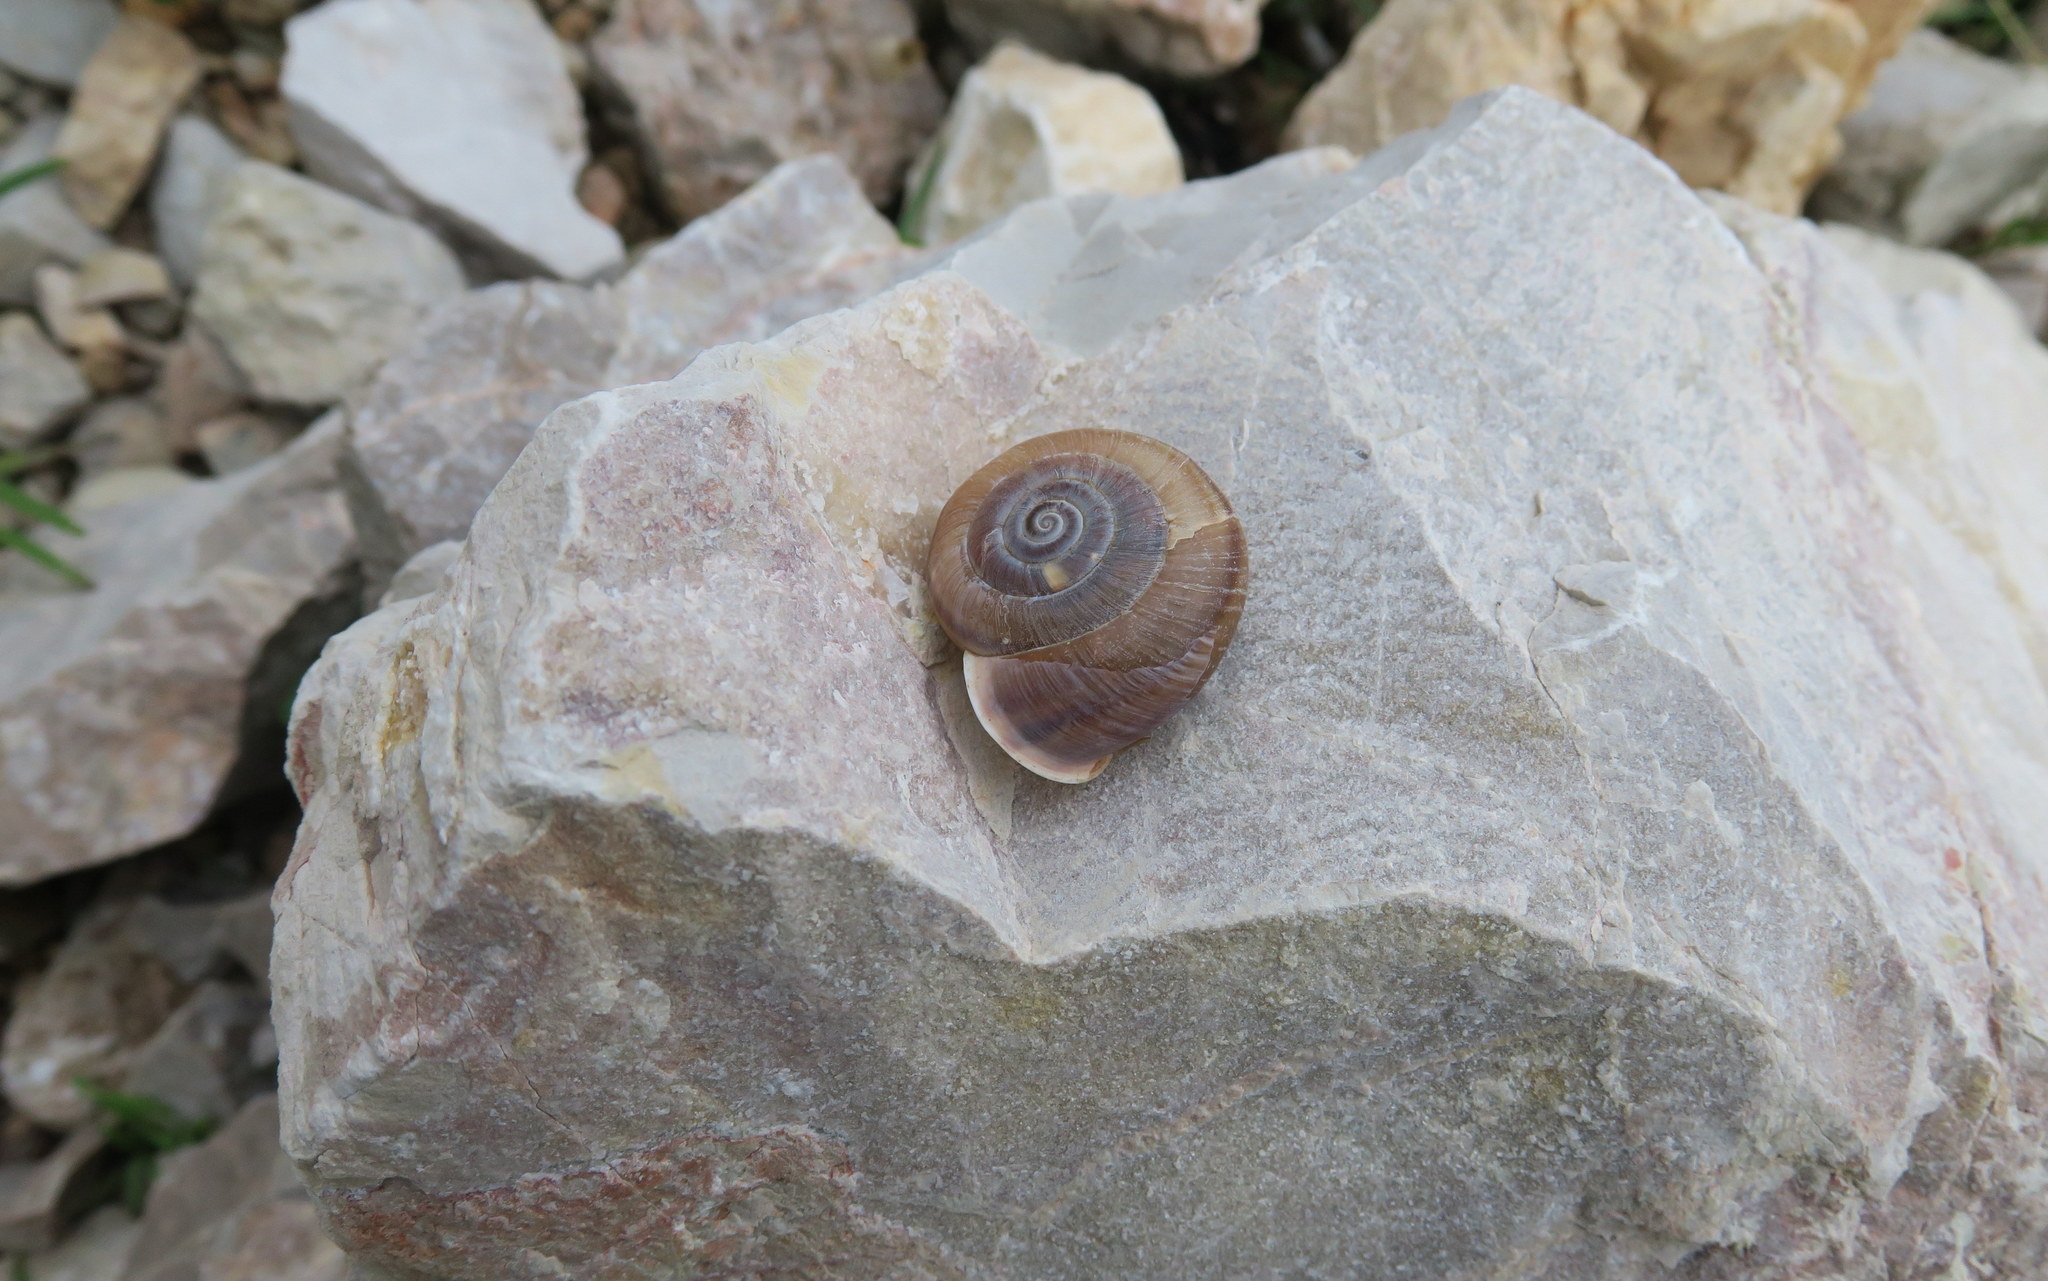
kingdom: Animalia
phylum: Mollusca
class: Gastropoda
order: Stylommatophora
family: Helicidae
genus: Campylaea
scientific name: Campylaea illyrica
